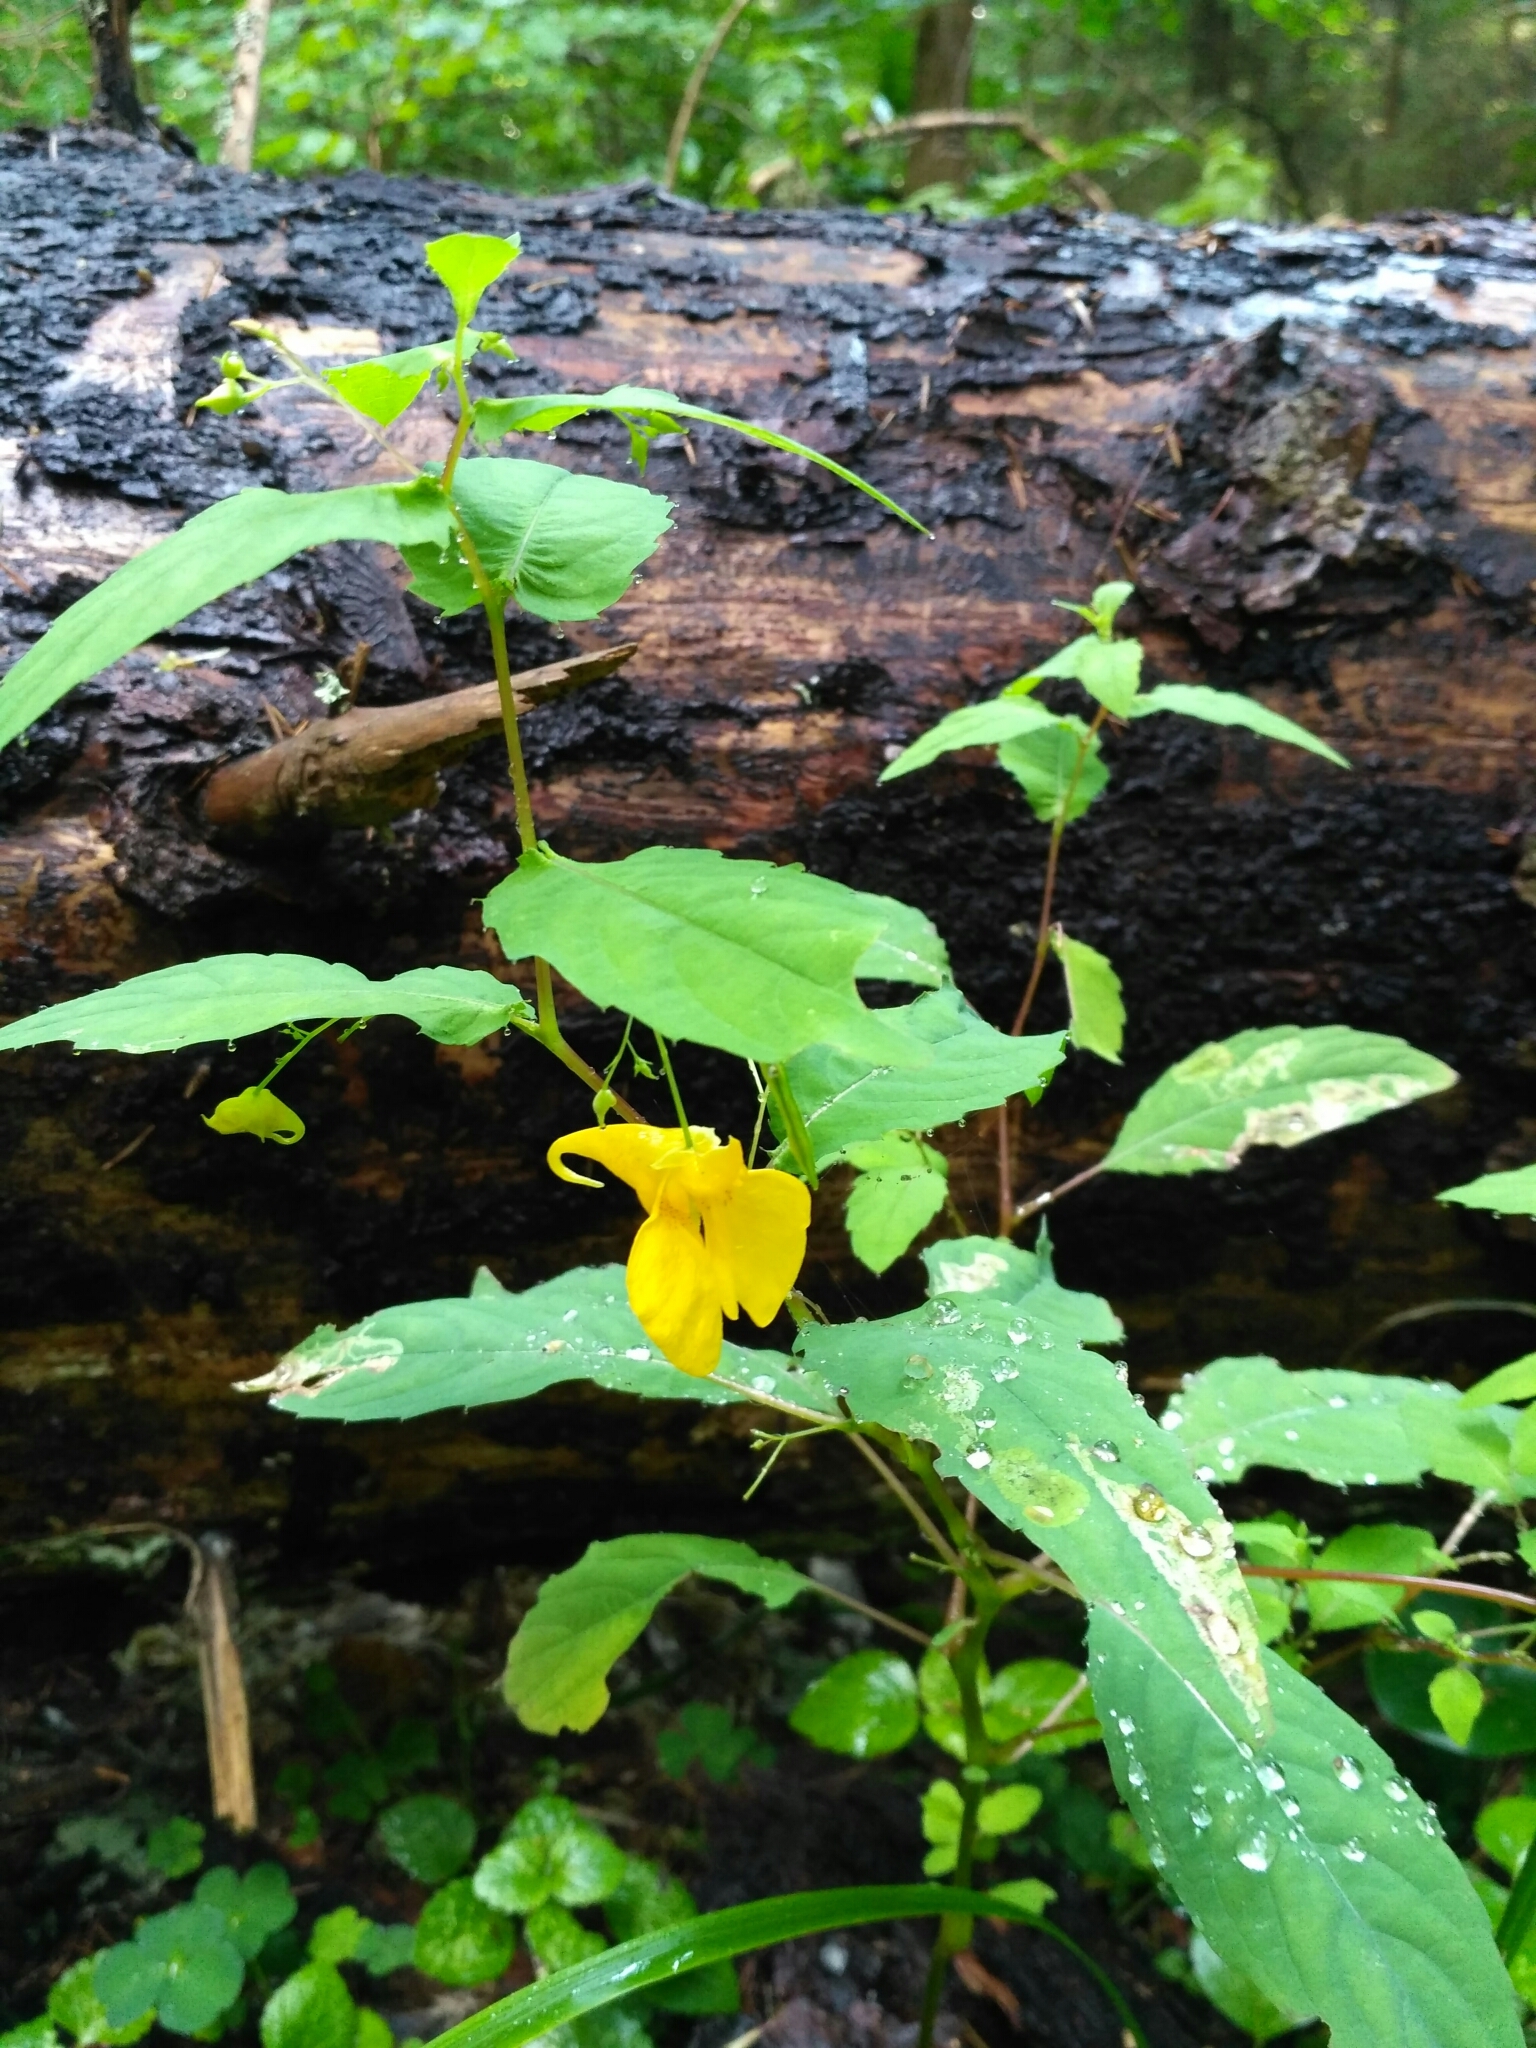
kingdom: Plantae
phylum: Tracheophyta
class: Magnoliopsida
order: Ericales
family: Balsaminaceae
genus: Impatiens
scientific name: Impatiens noli-tangere
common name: Touch-me-not balsam
